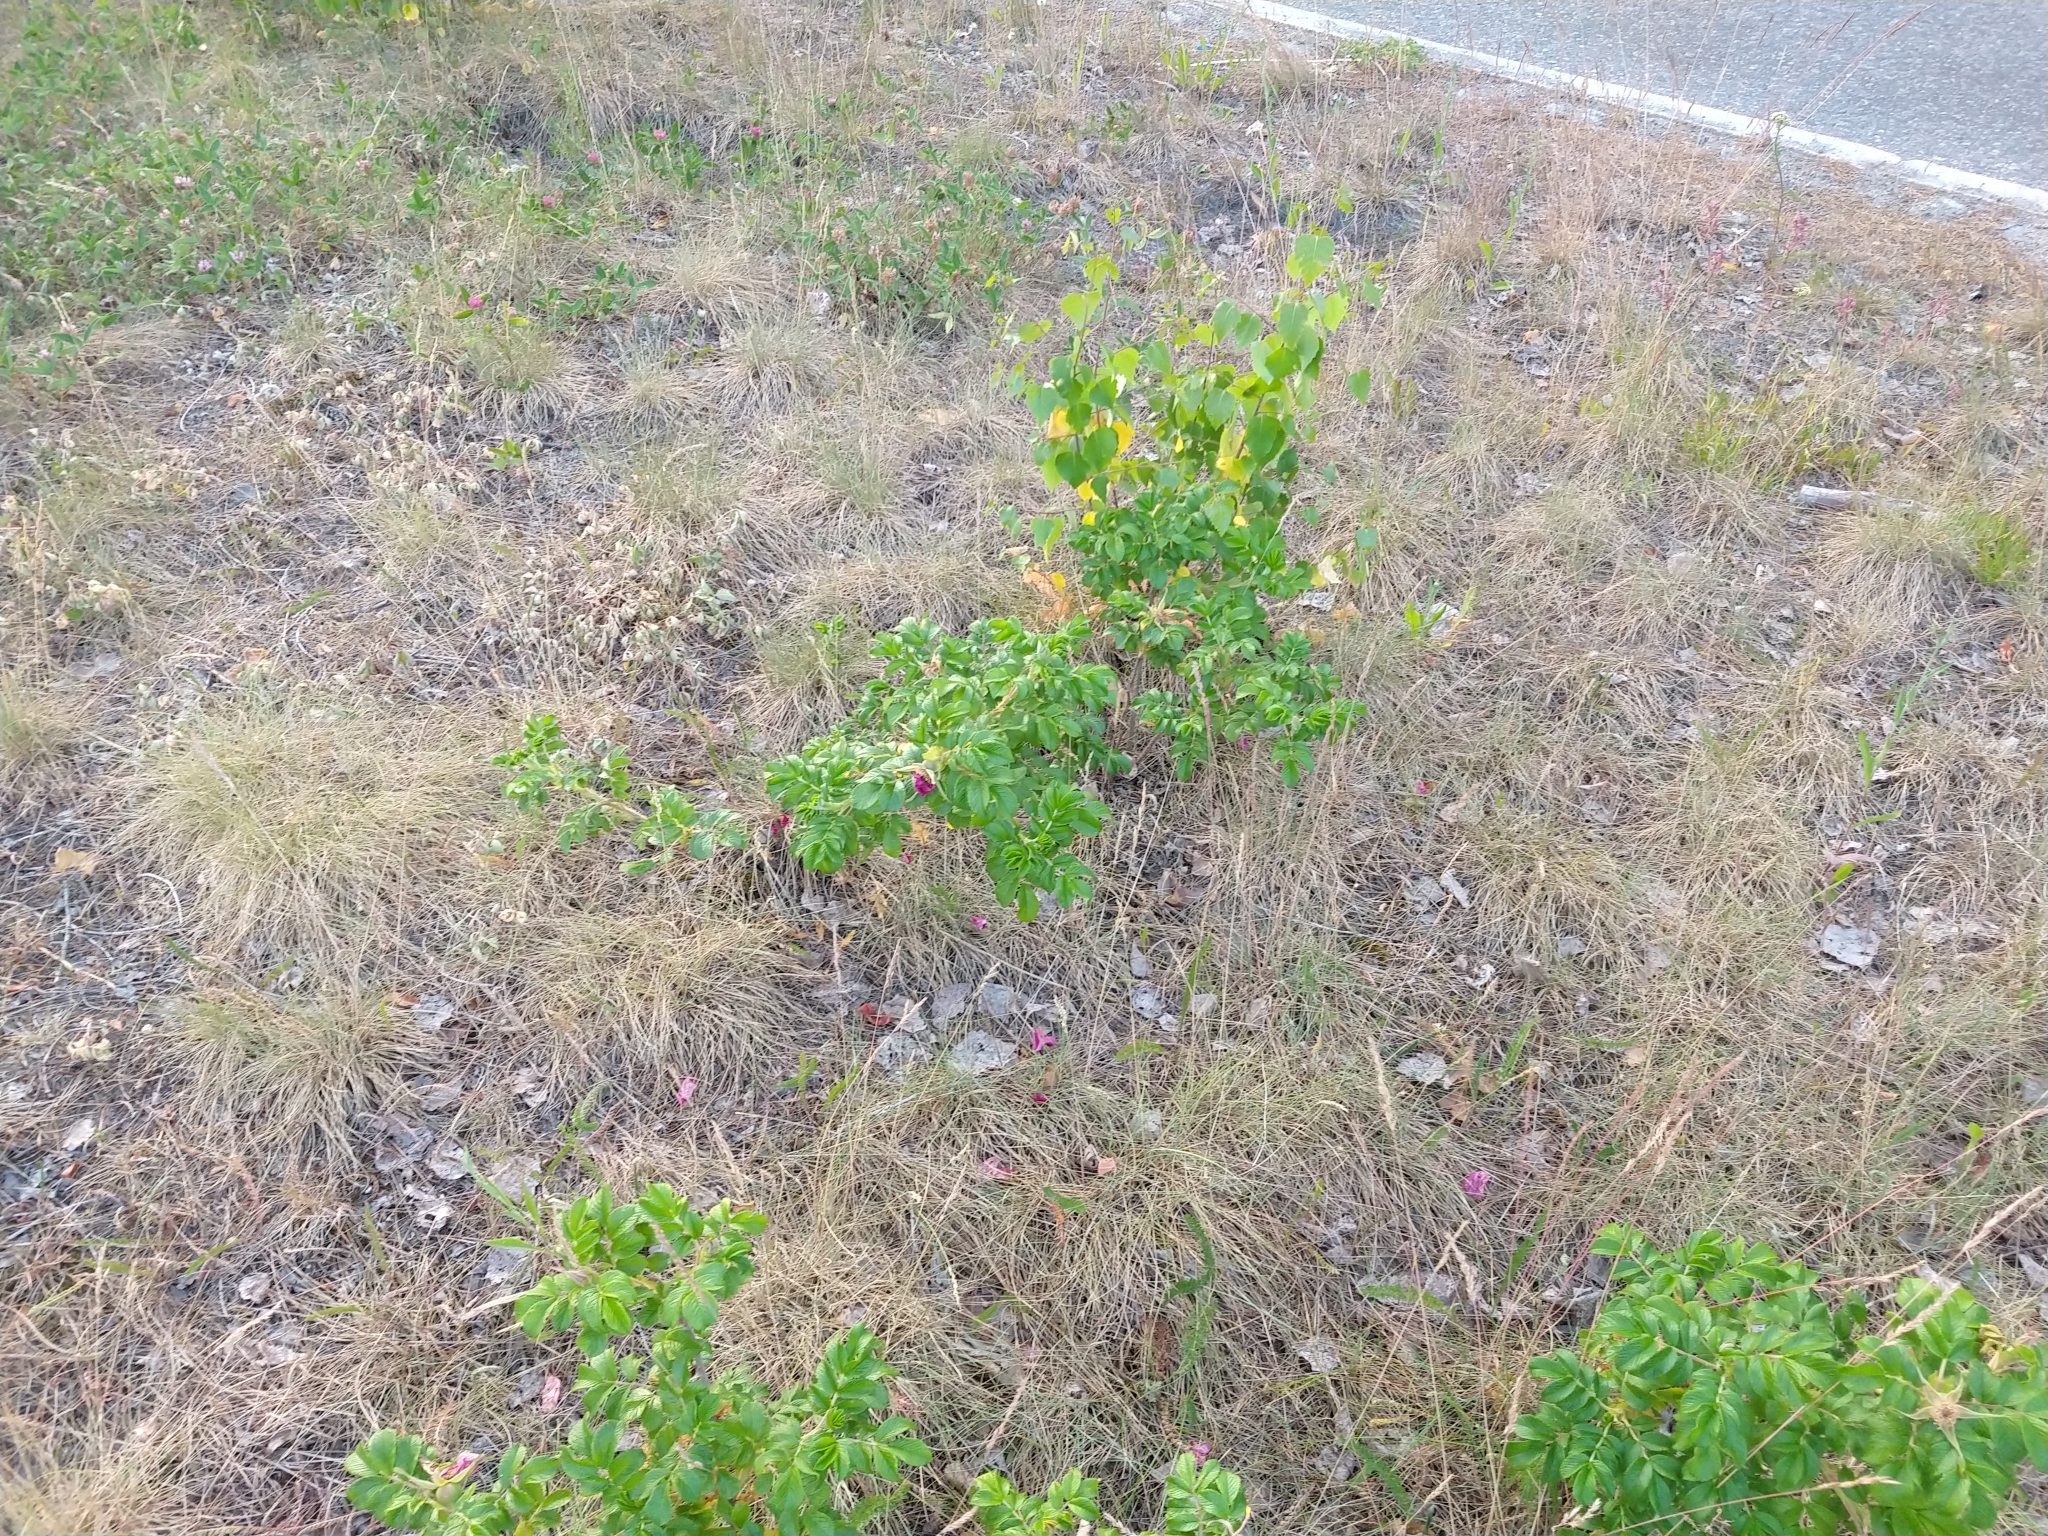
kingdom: Plantae
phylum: Tracheophyta
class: Magnoliopsida
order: Rosales
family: Rosaceae
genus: Rosa
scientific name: Rosa rugosa
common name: Japanese rose
